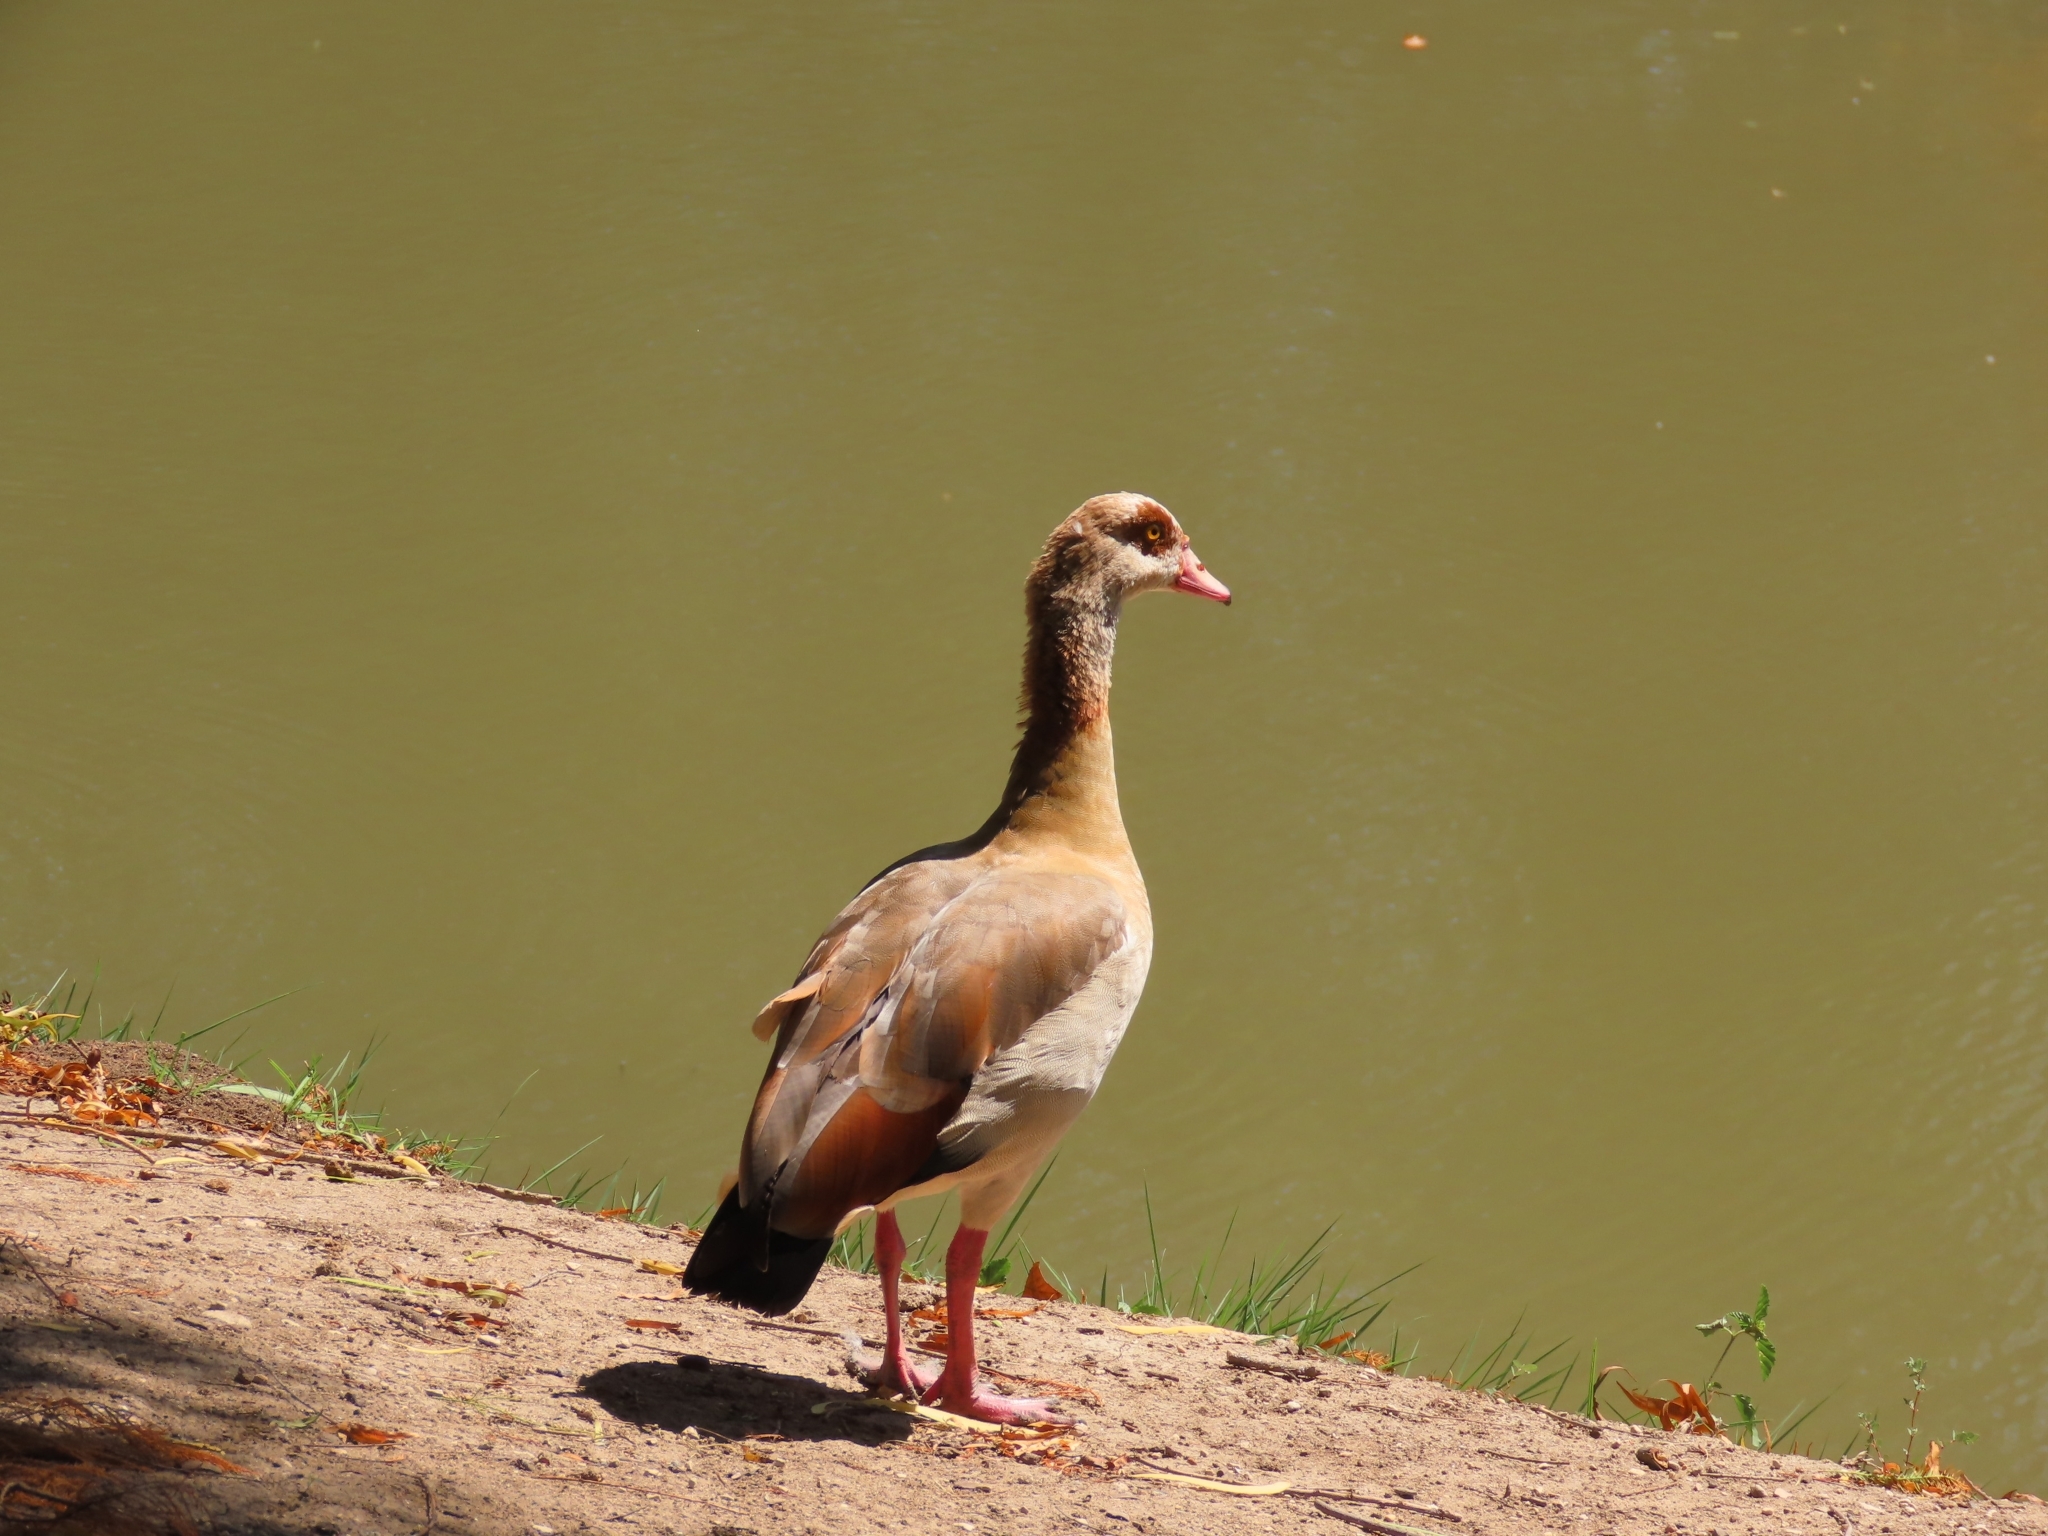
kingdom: Animalia
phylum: Chordata
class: Aves
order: Anseriformes
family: Anatidae
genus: Alopochen
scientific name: Alopochen aegyptiaca
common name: Egyptian goose
